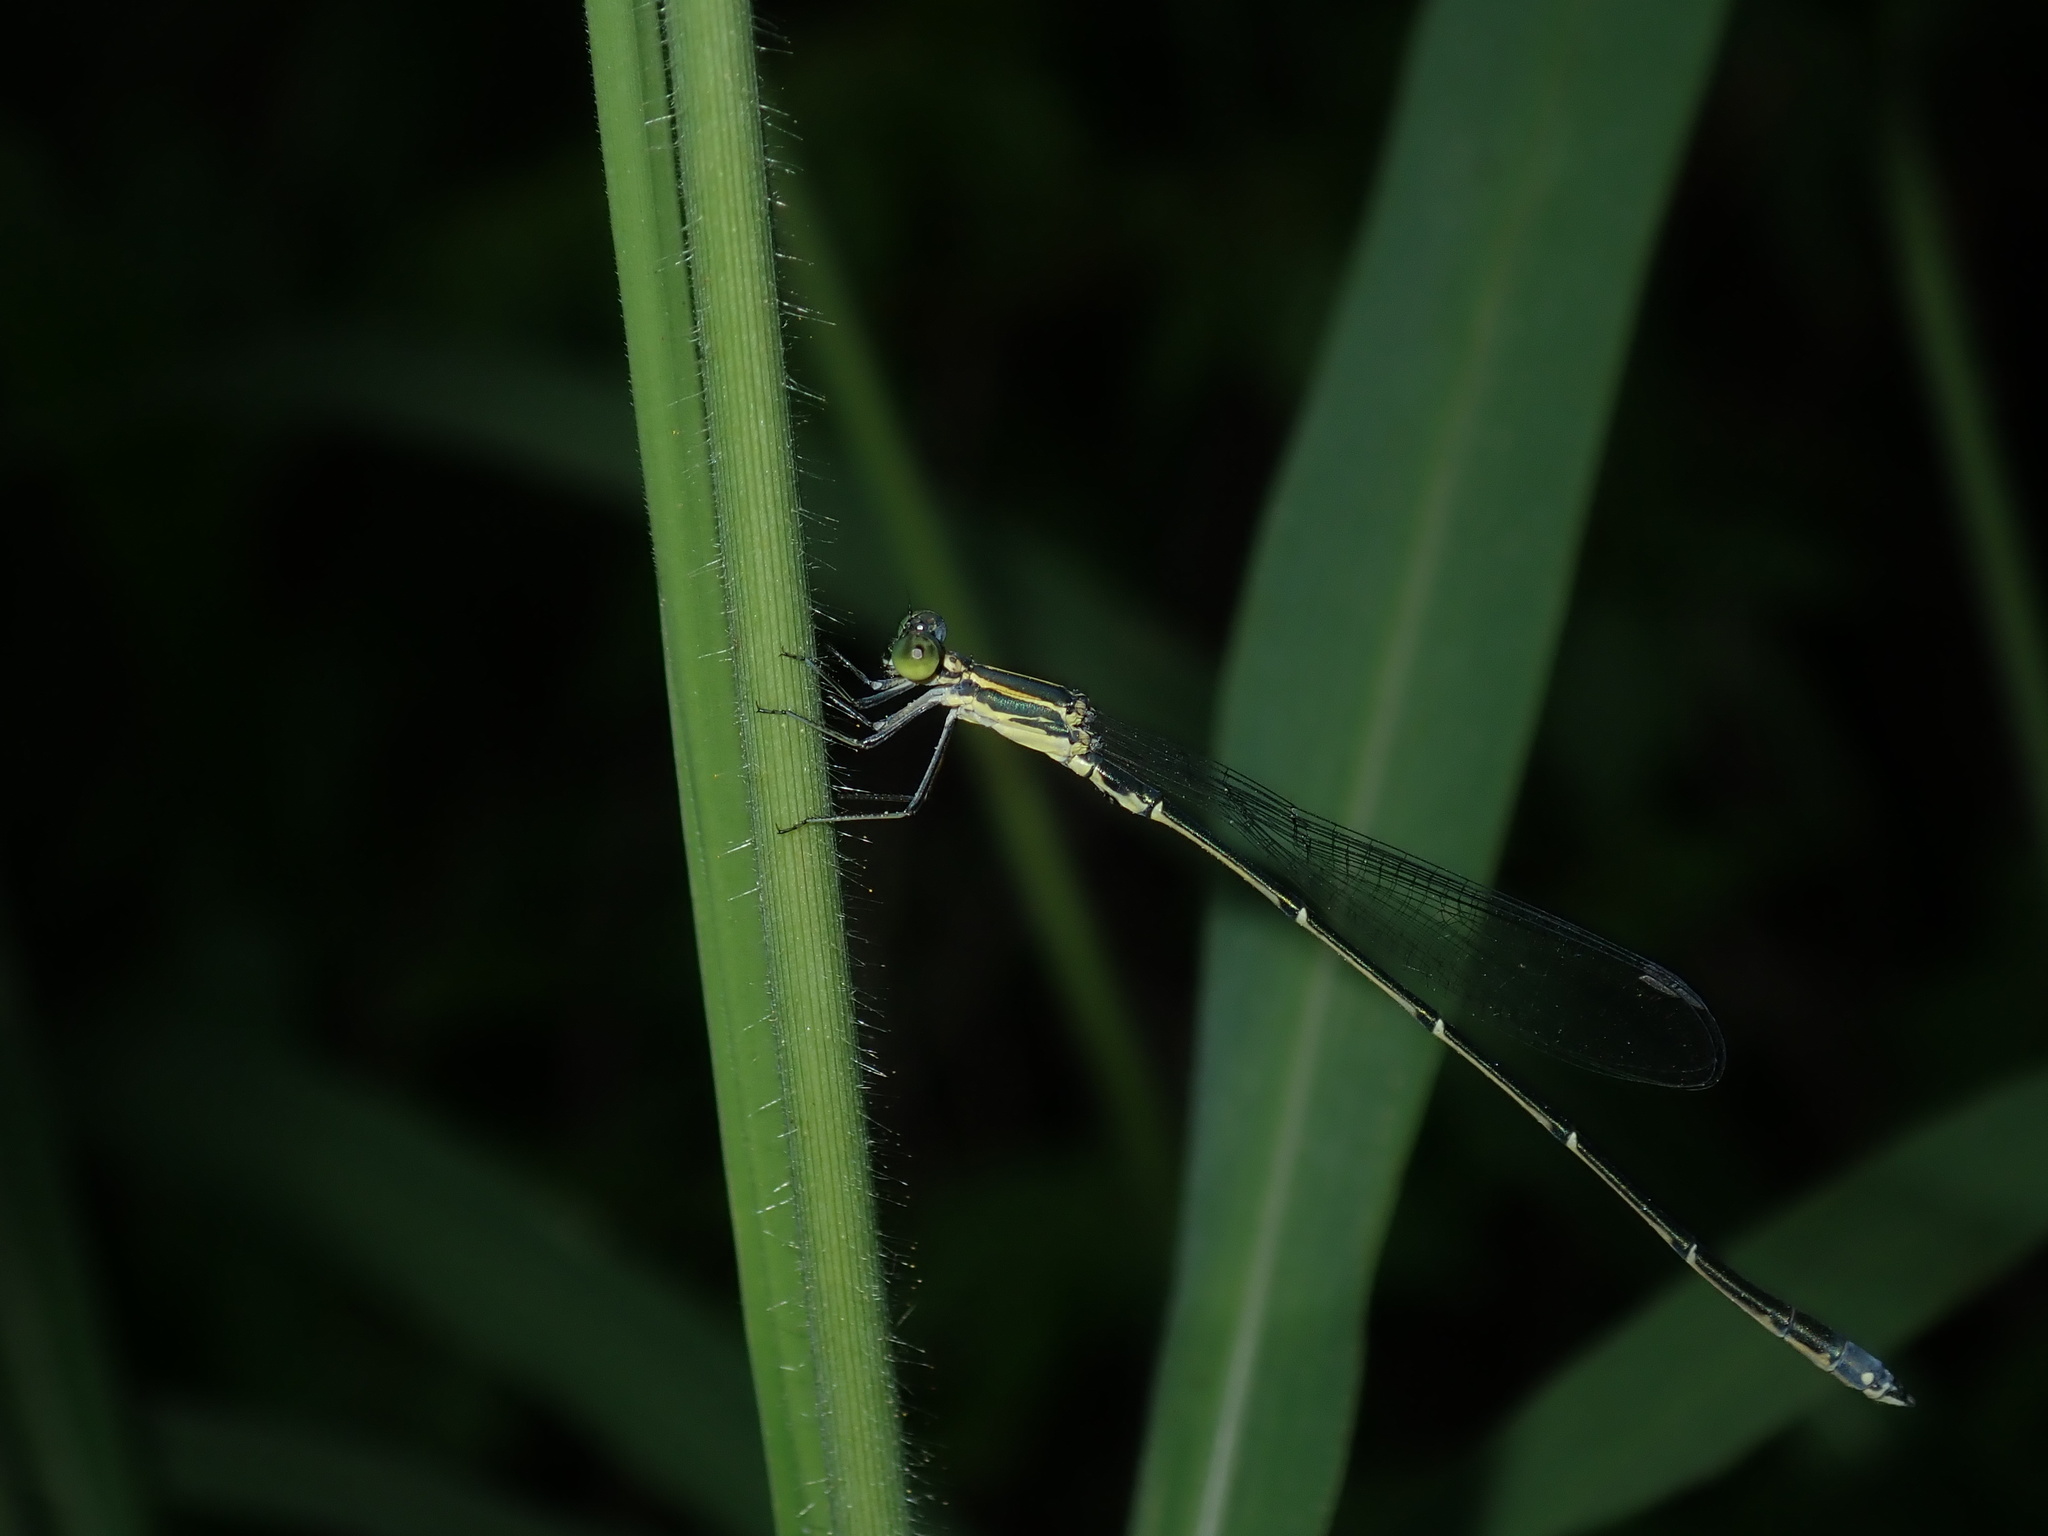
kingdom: Animalia
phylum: Arthropoda
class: Insecta
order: Odonata
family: Isostictidae
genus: Rhadinosticta
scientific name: Rhadinosticta simplex
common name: Powdered wiretail
